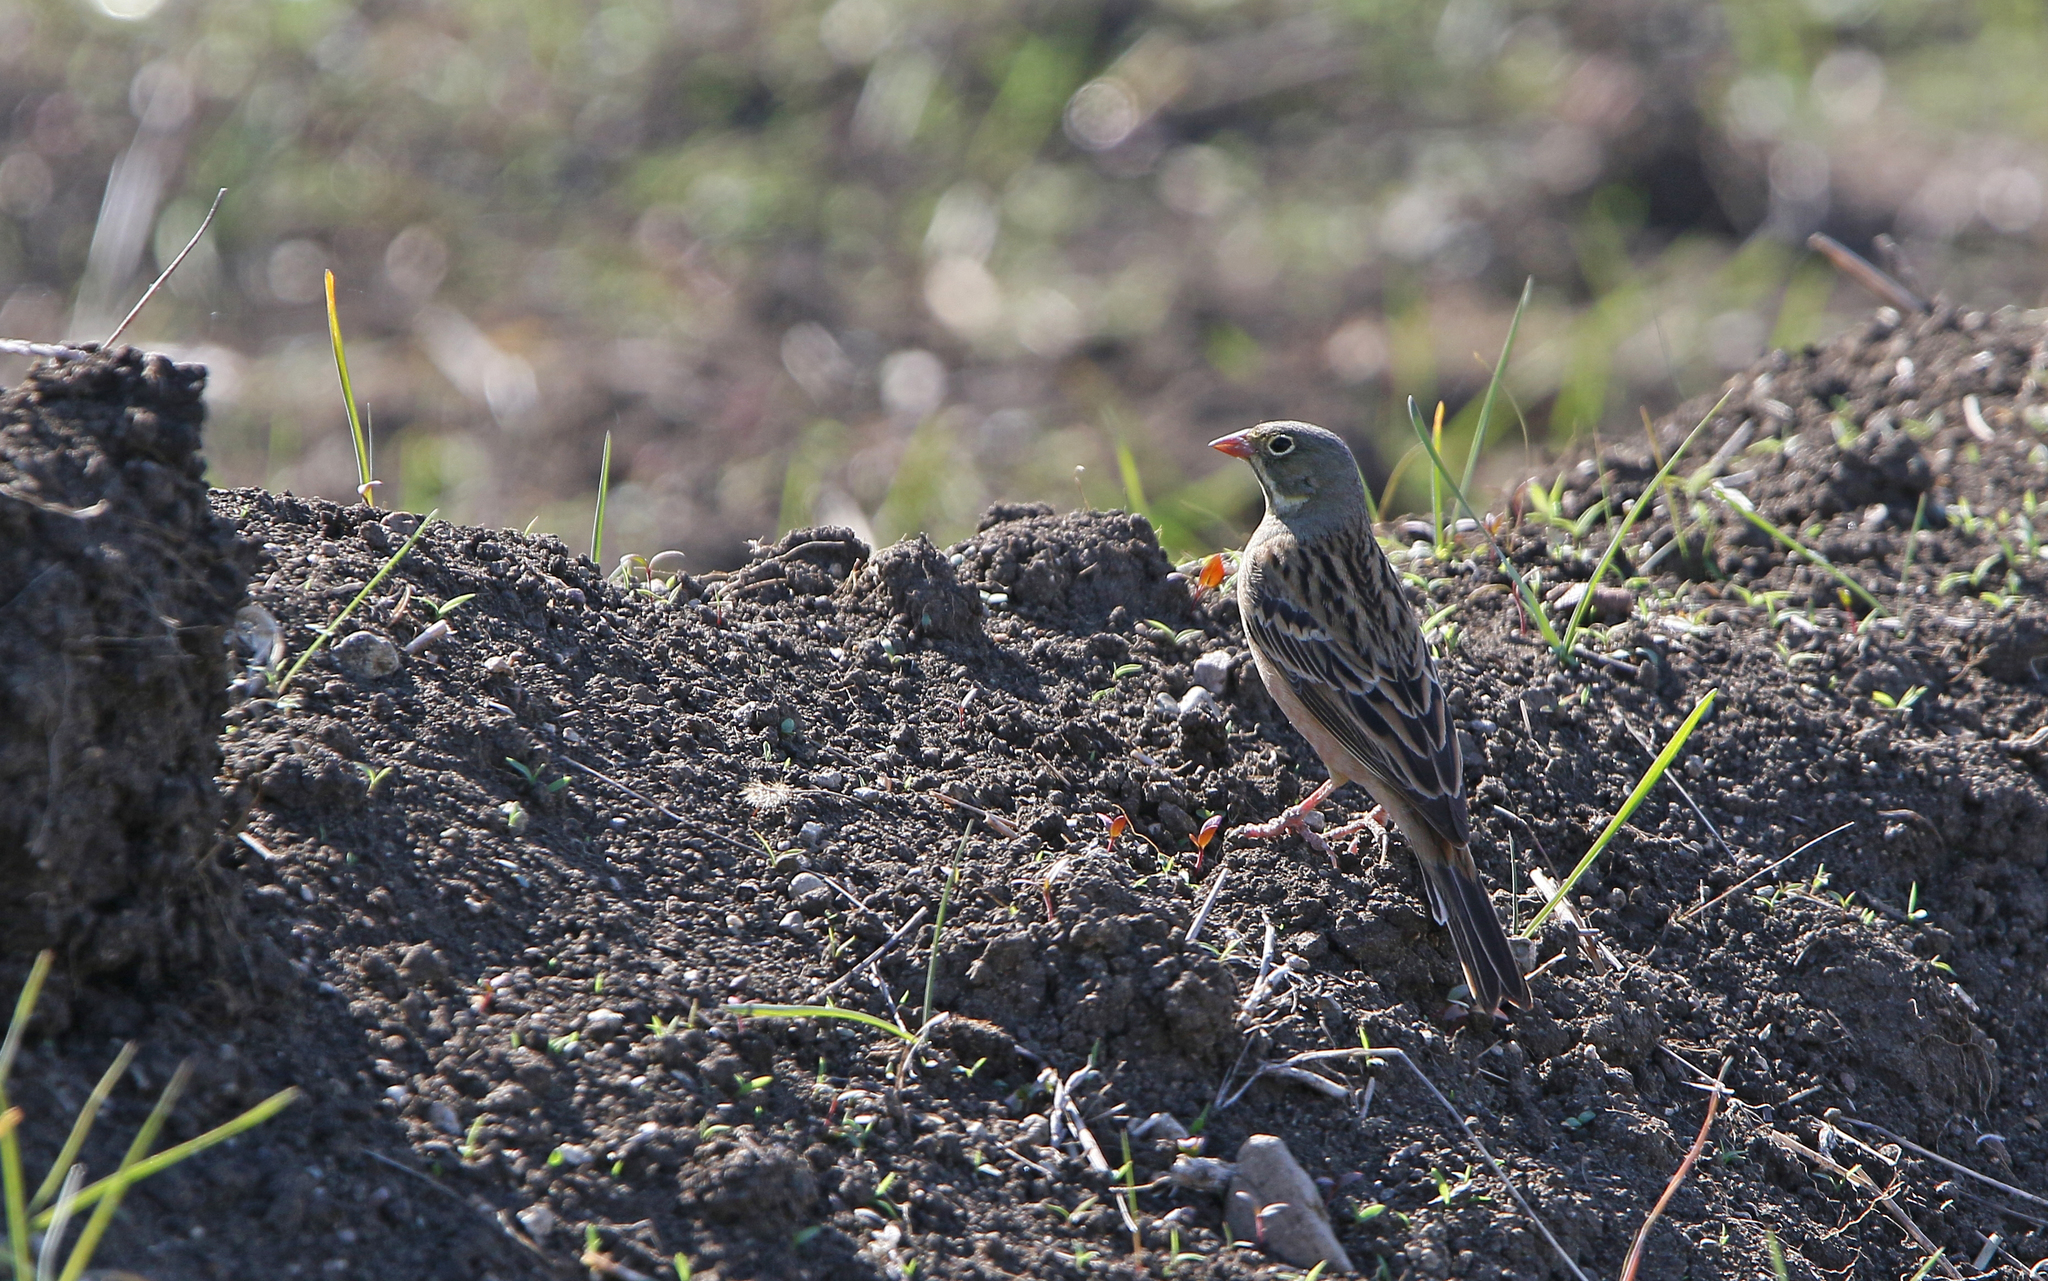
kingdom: Animalia
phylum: Chordata
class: Aves
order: Passeriformes
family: Emberizidae
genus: Emberiza
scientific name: Emberiza hortulana
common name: Ortolan bunting
